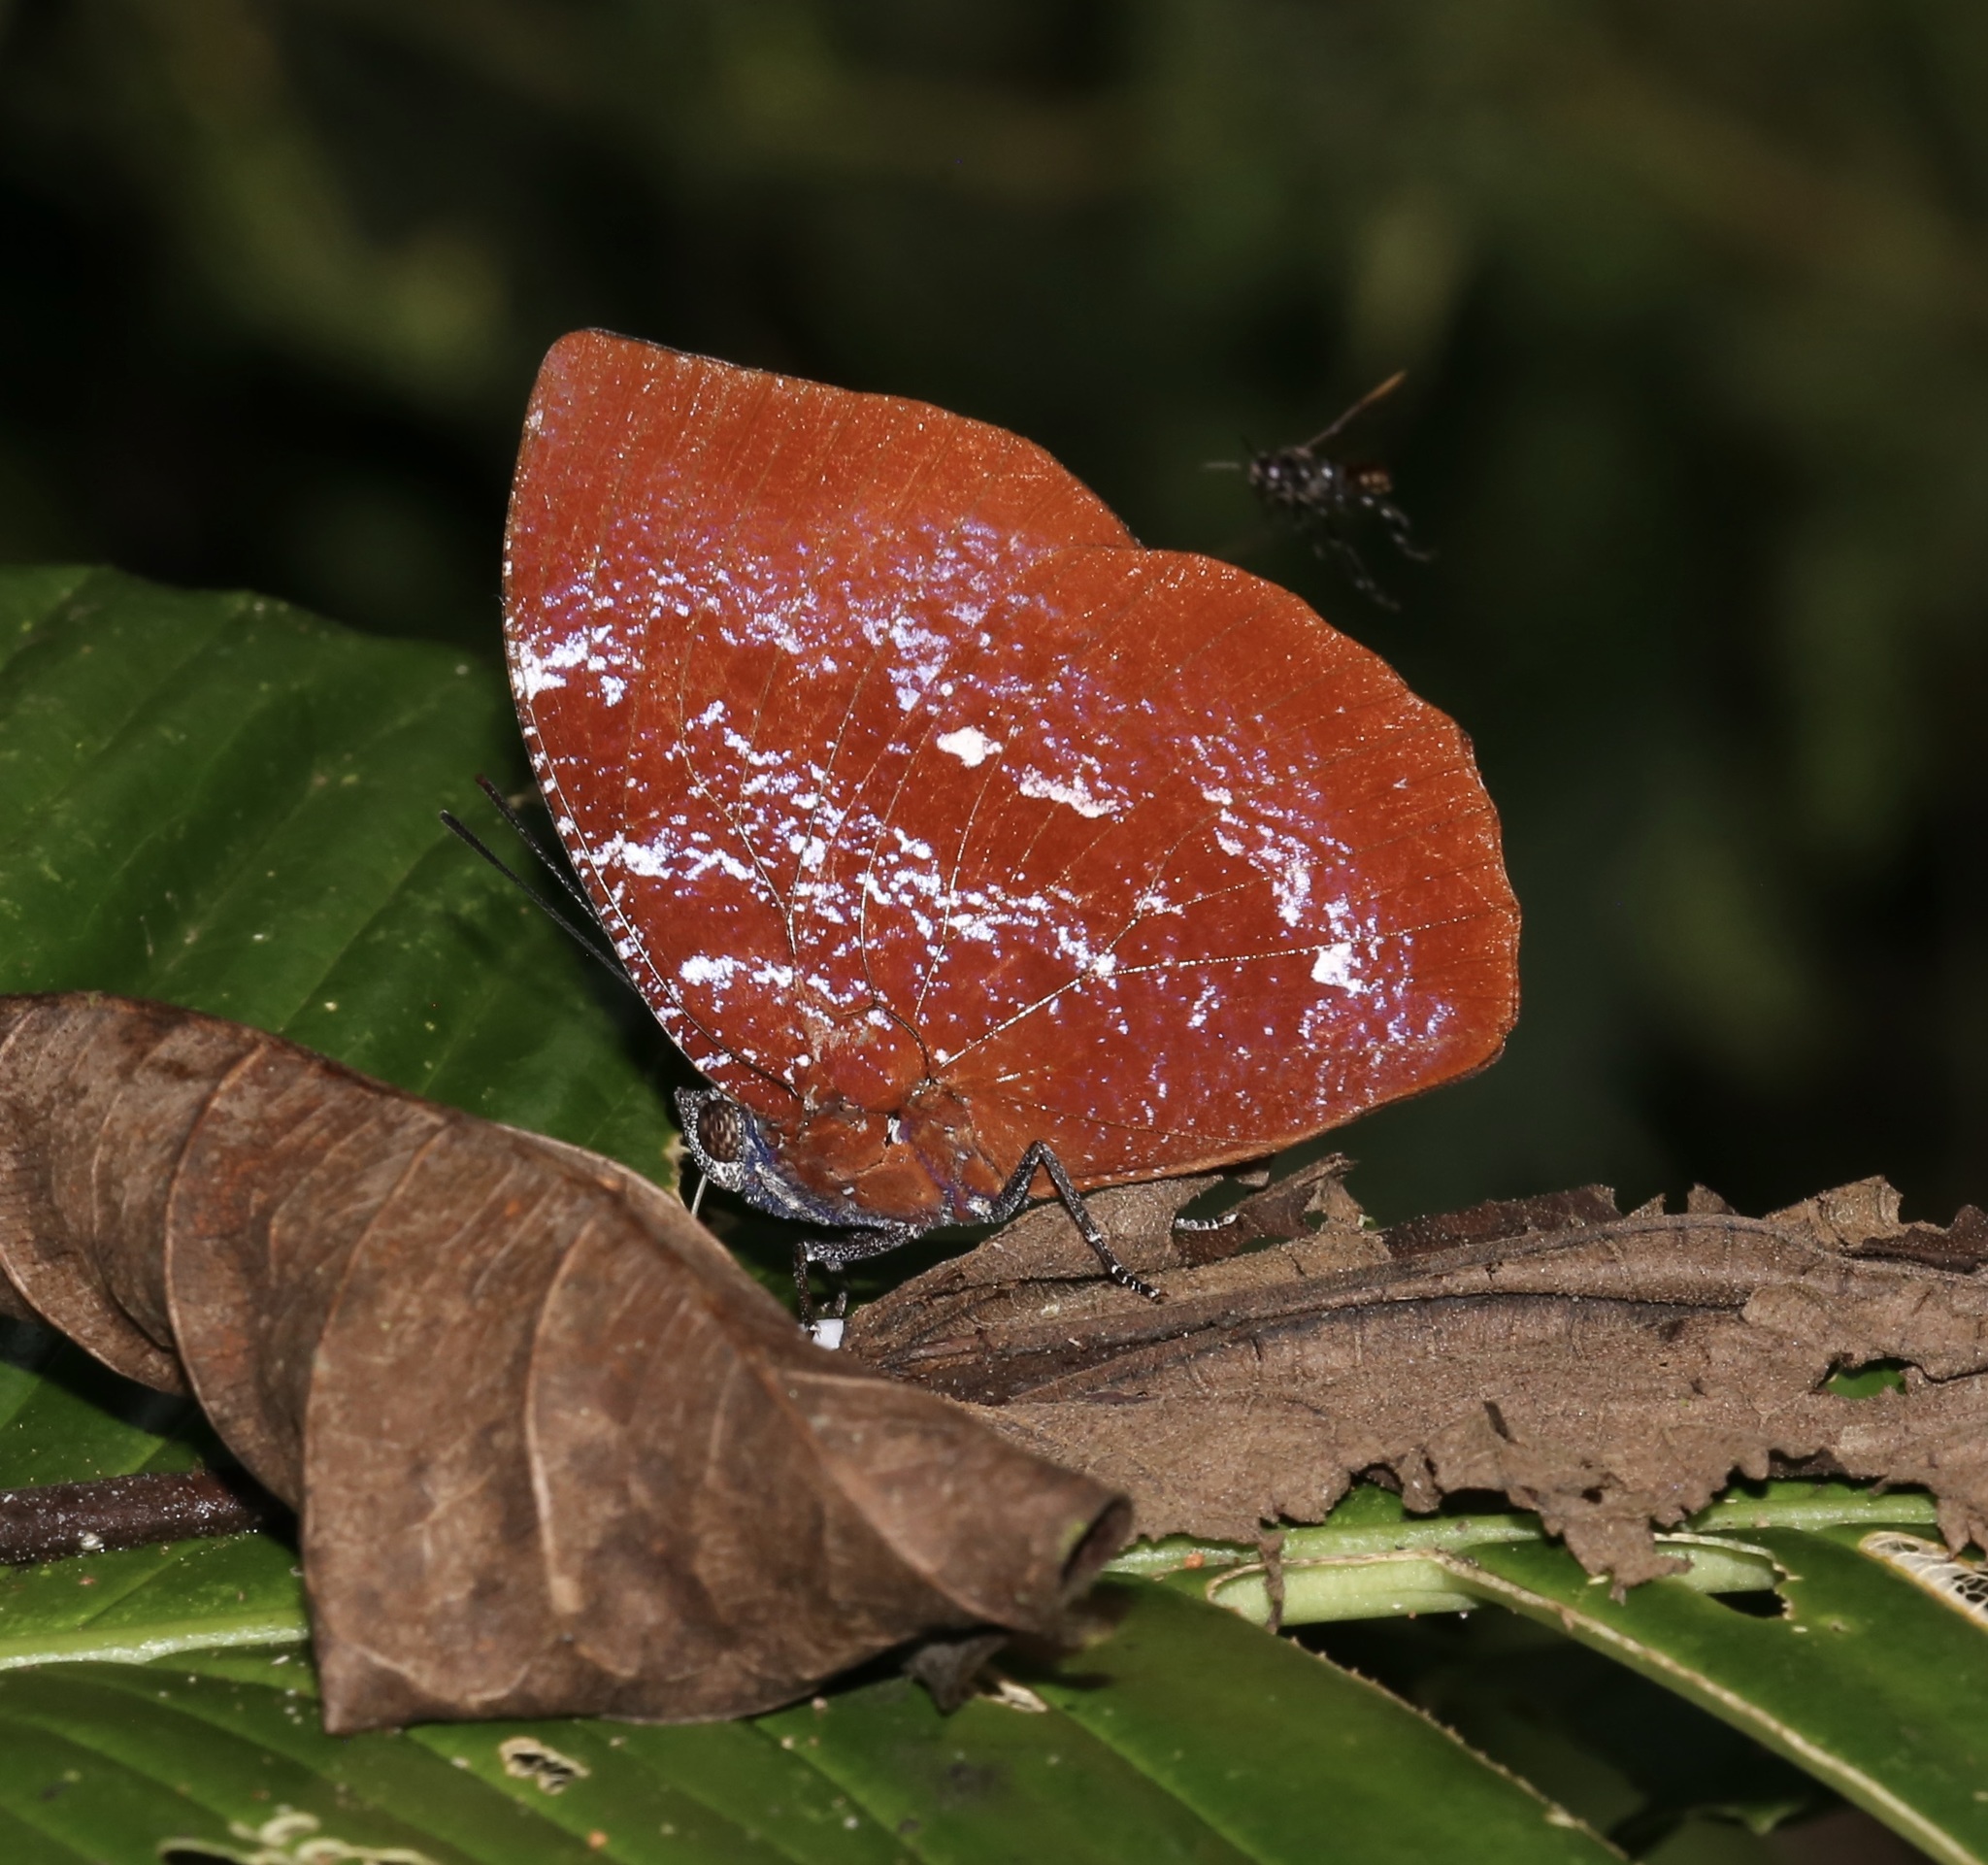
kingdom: Animalia
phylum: Arthropoda
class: Insecta
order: Lepidoptera
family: Nymphalidae
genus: Memphis
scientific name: Memphis
